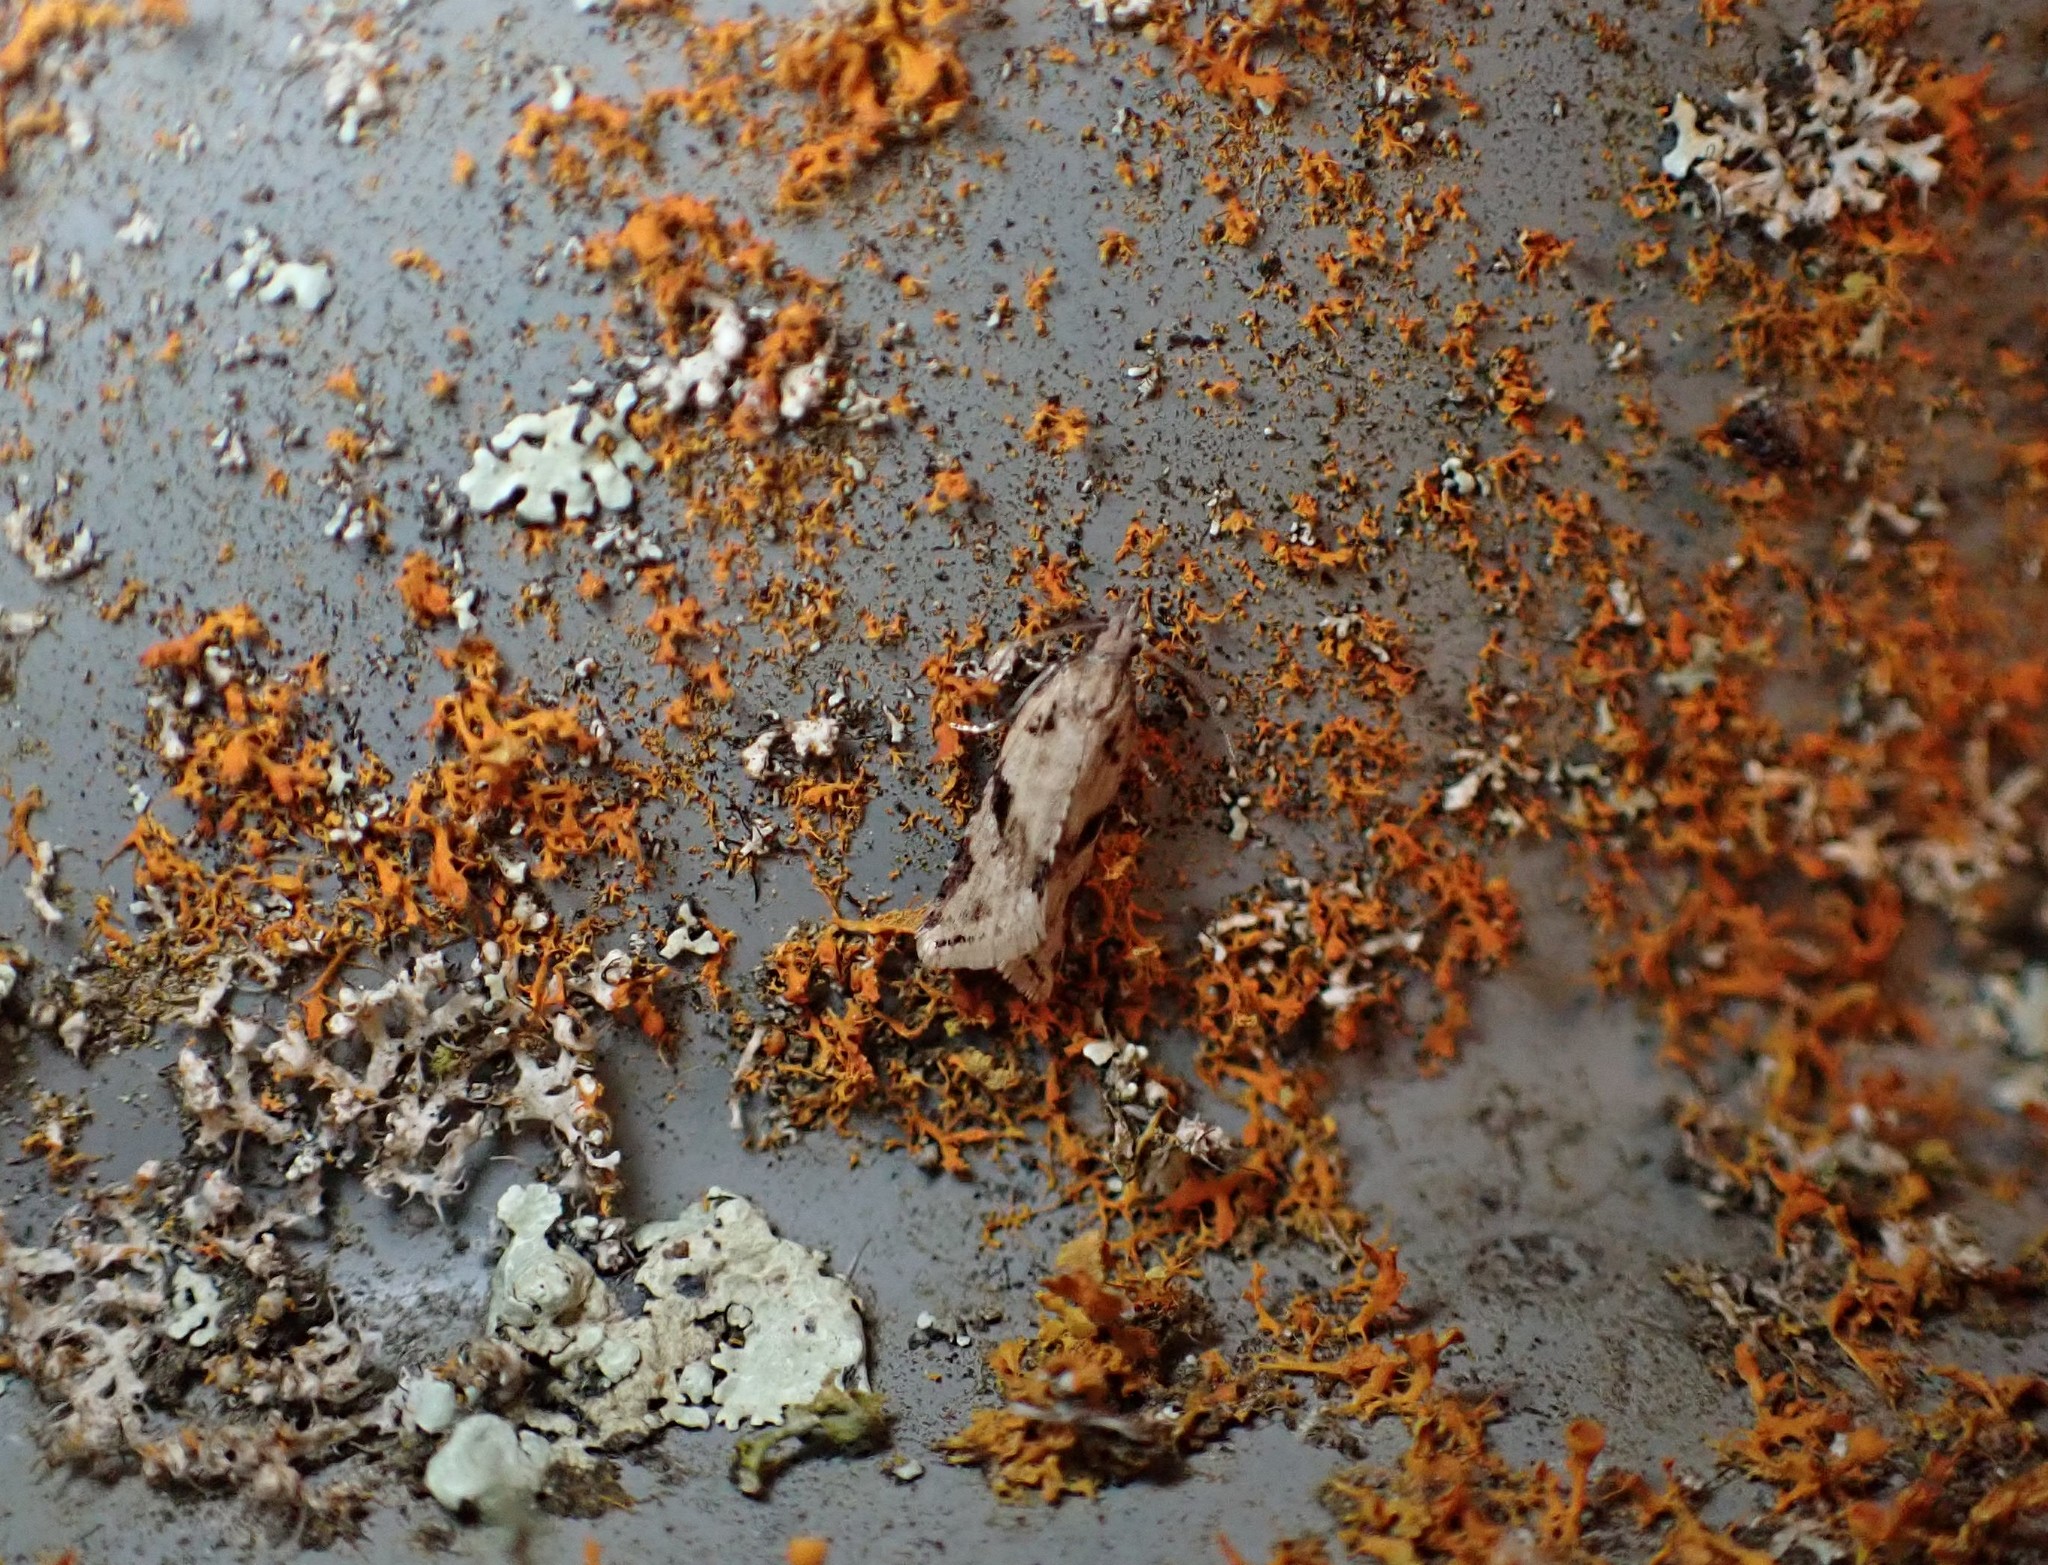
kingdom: Animalia
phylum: Arthropoda
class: Insecta
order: Lepidoptera
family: Tortricidae
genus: Capua
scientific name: Capua semiferana
